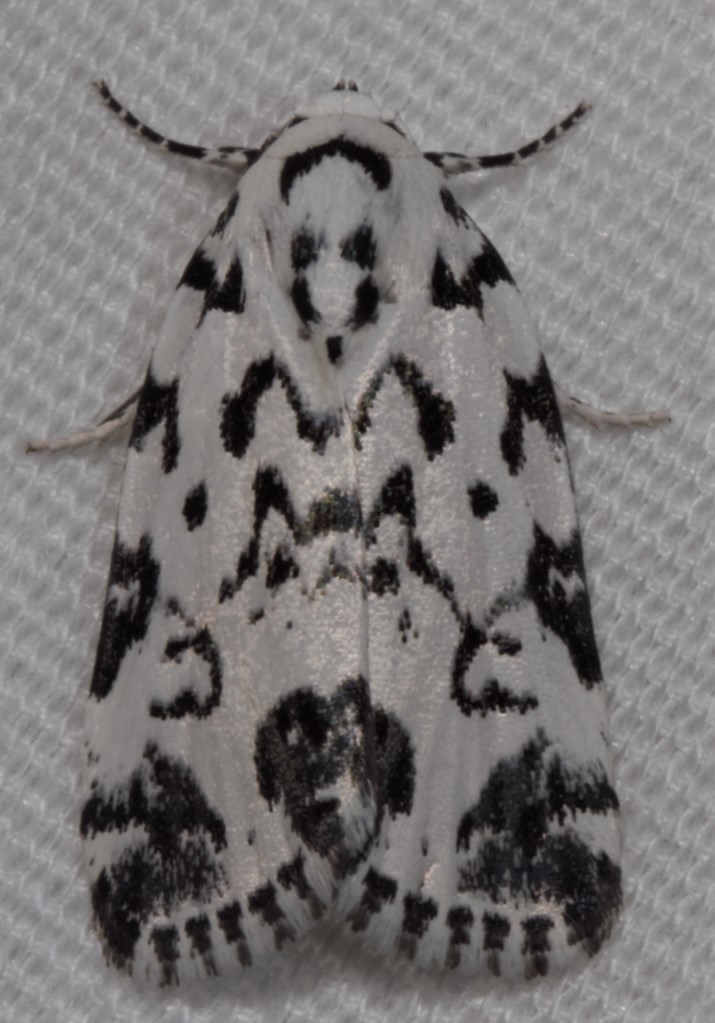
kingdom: Animalia
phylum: Arthropoda
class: Insecta
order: Lepidoptera
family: Noctuidae
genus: Polygrammate
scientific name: Polygrammate hebraeicum
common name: Hebrew moth
